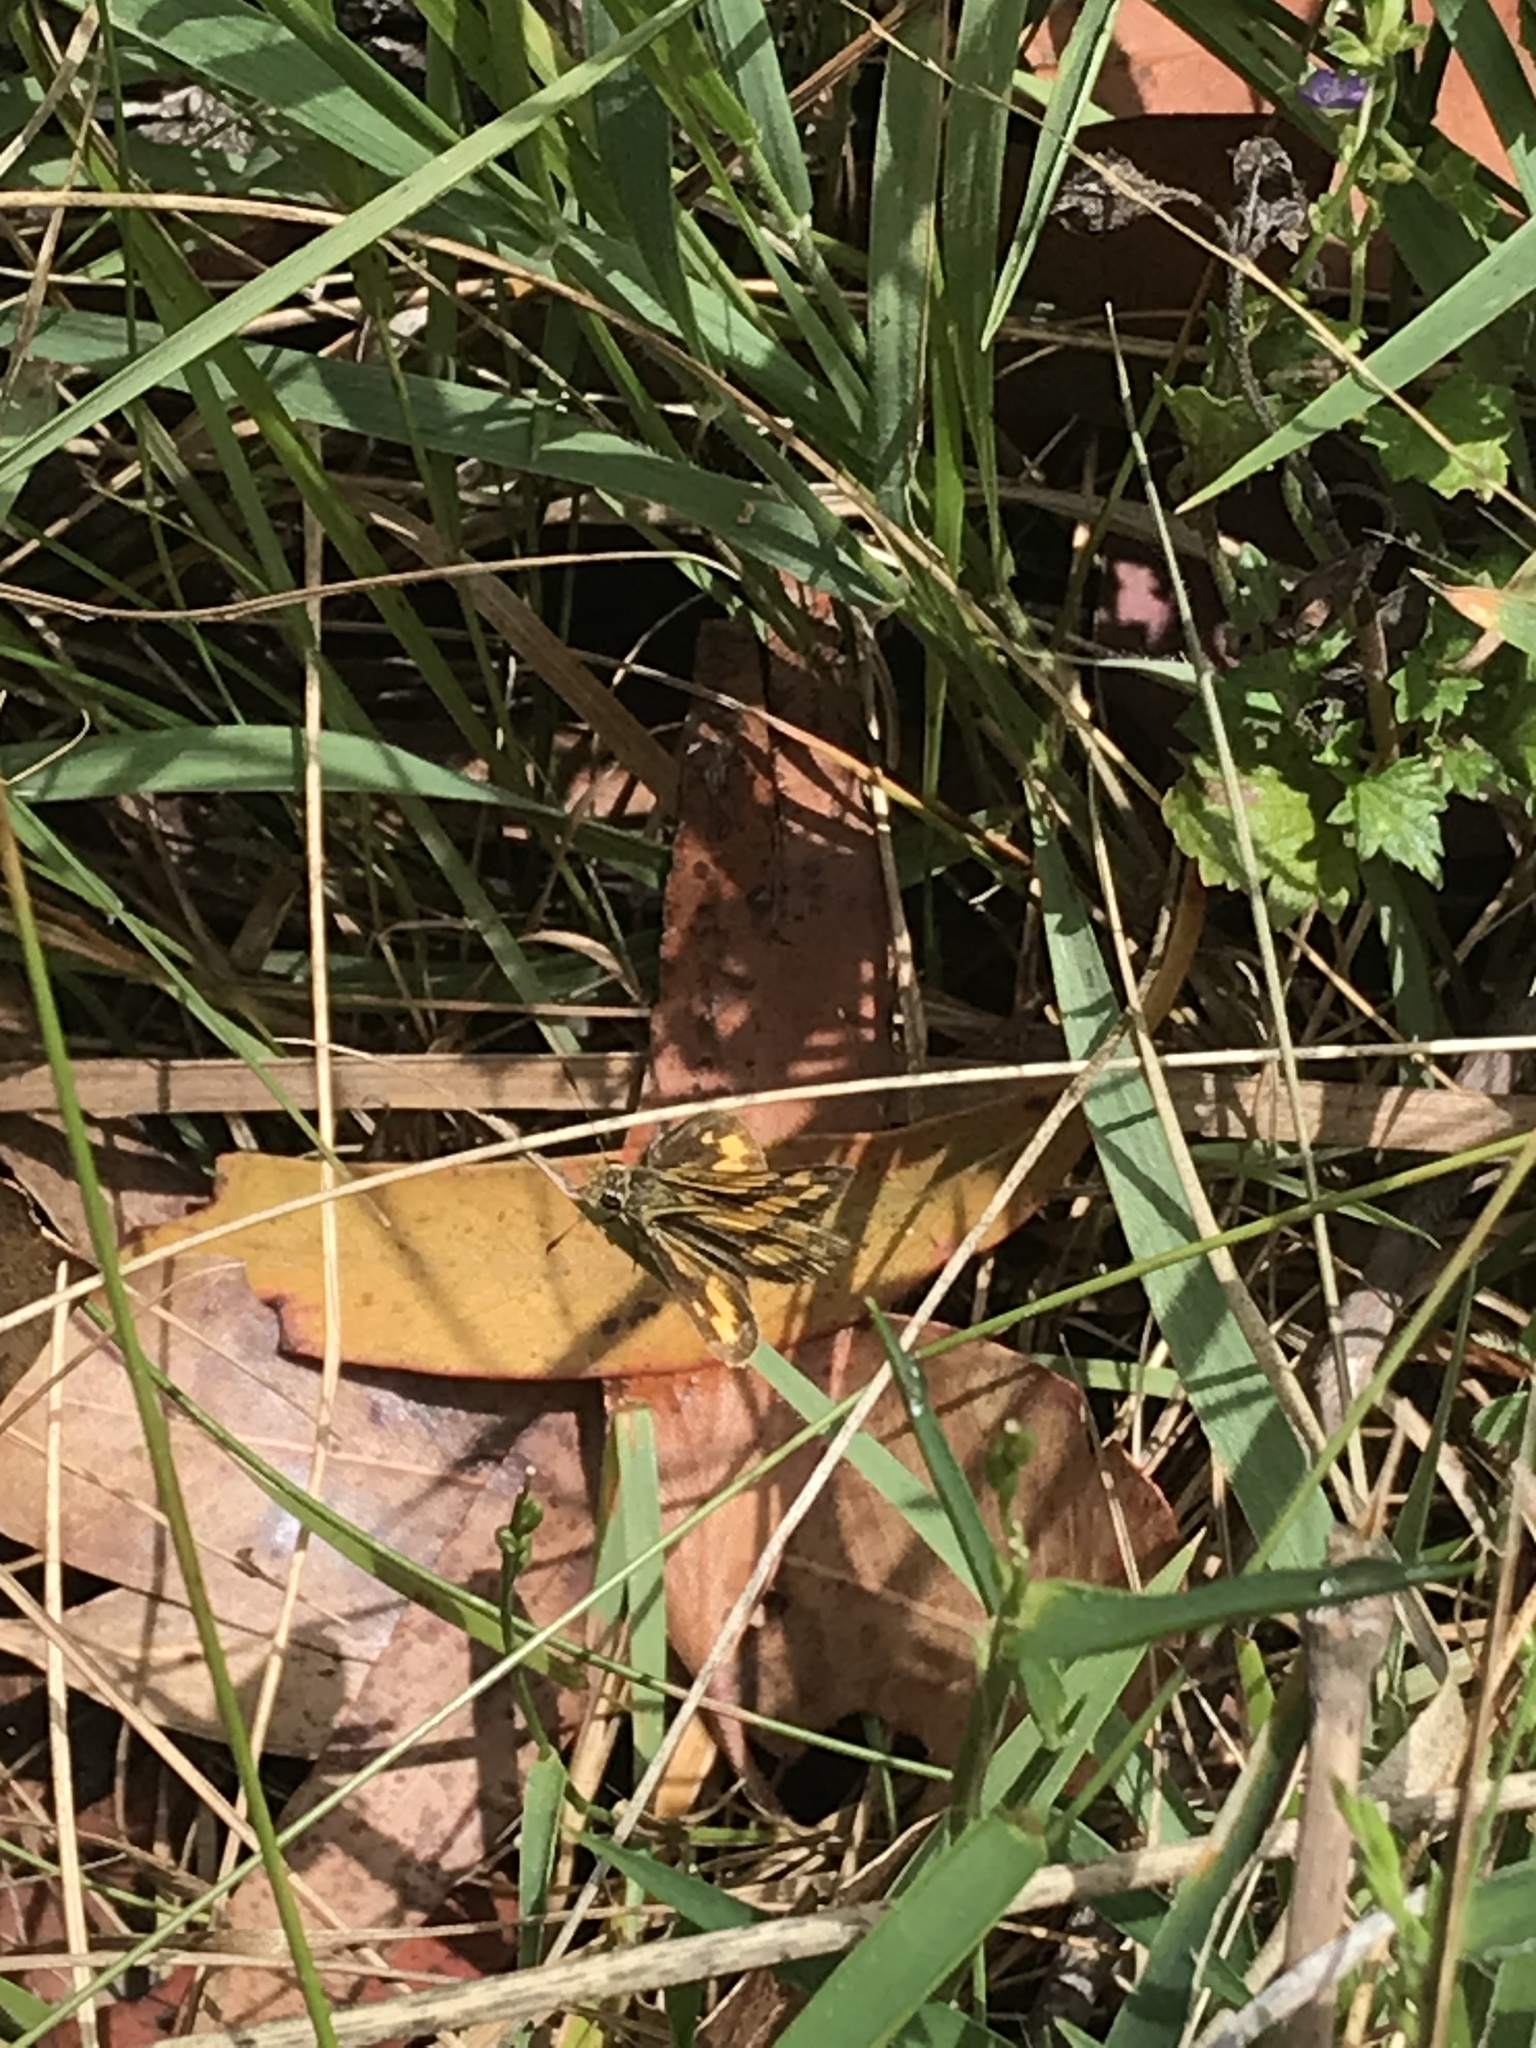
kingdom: Animalia
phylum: Arthropoda
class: Insecta
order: Lepidoptera
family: Hesperiidae
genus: Ocybadistes
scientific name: Ocybadistes walkeri
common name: Yellow-banded dart
